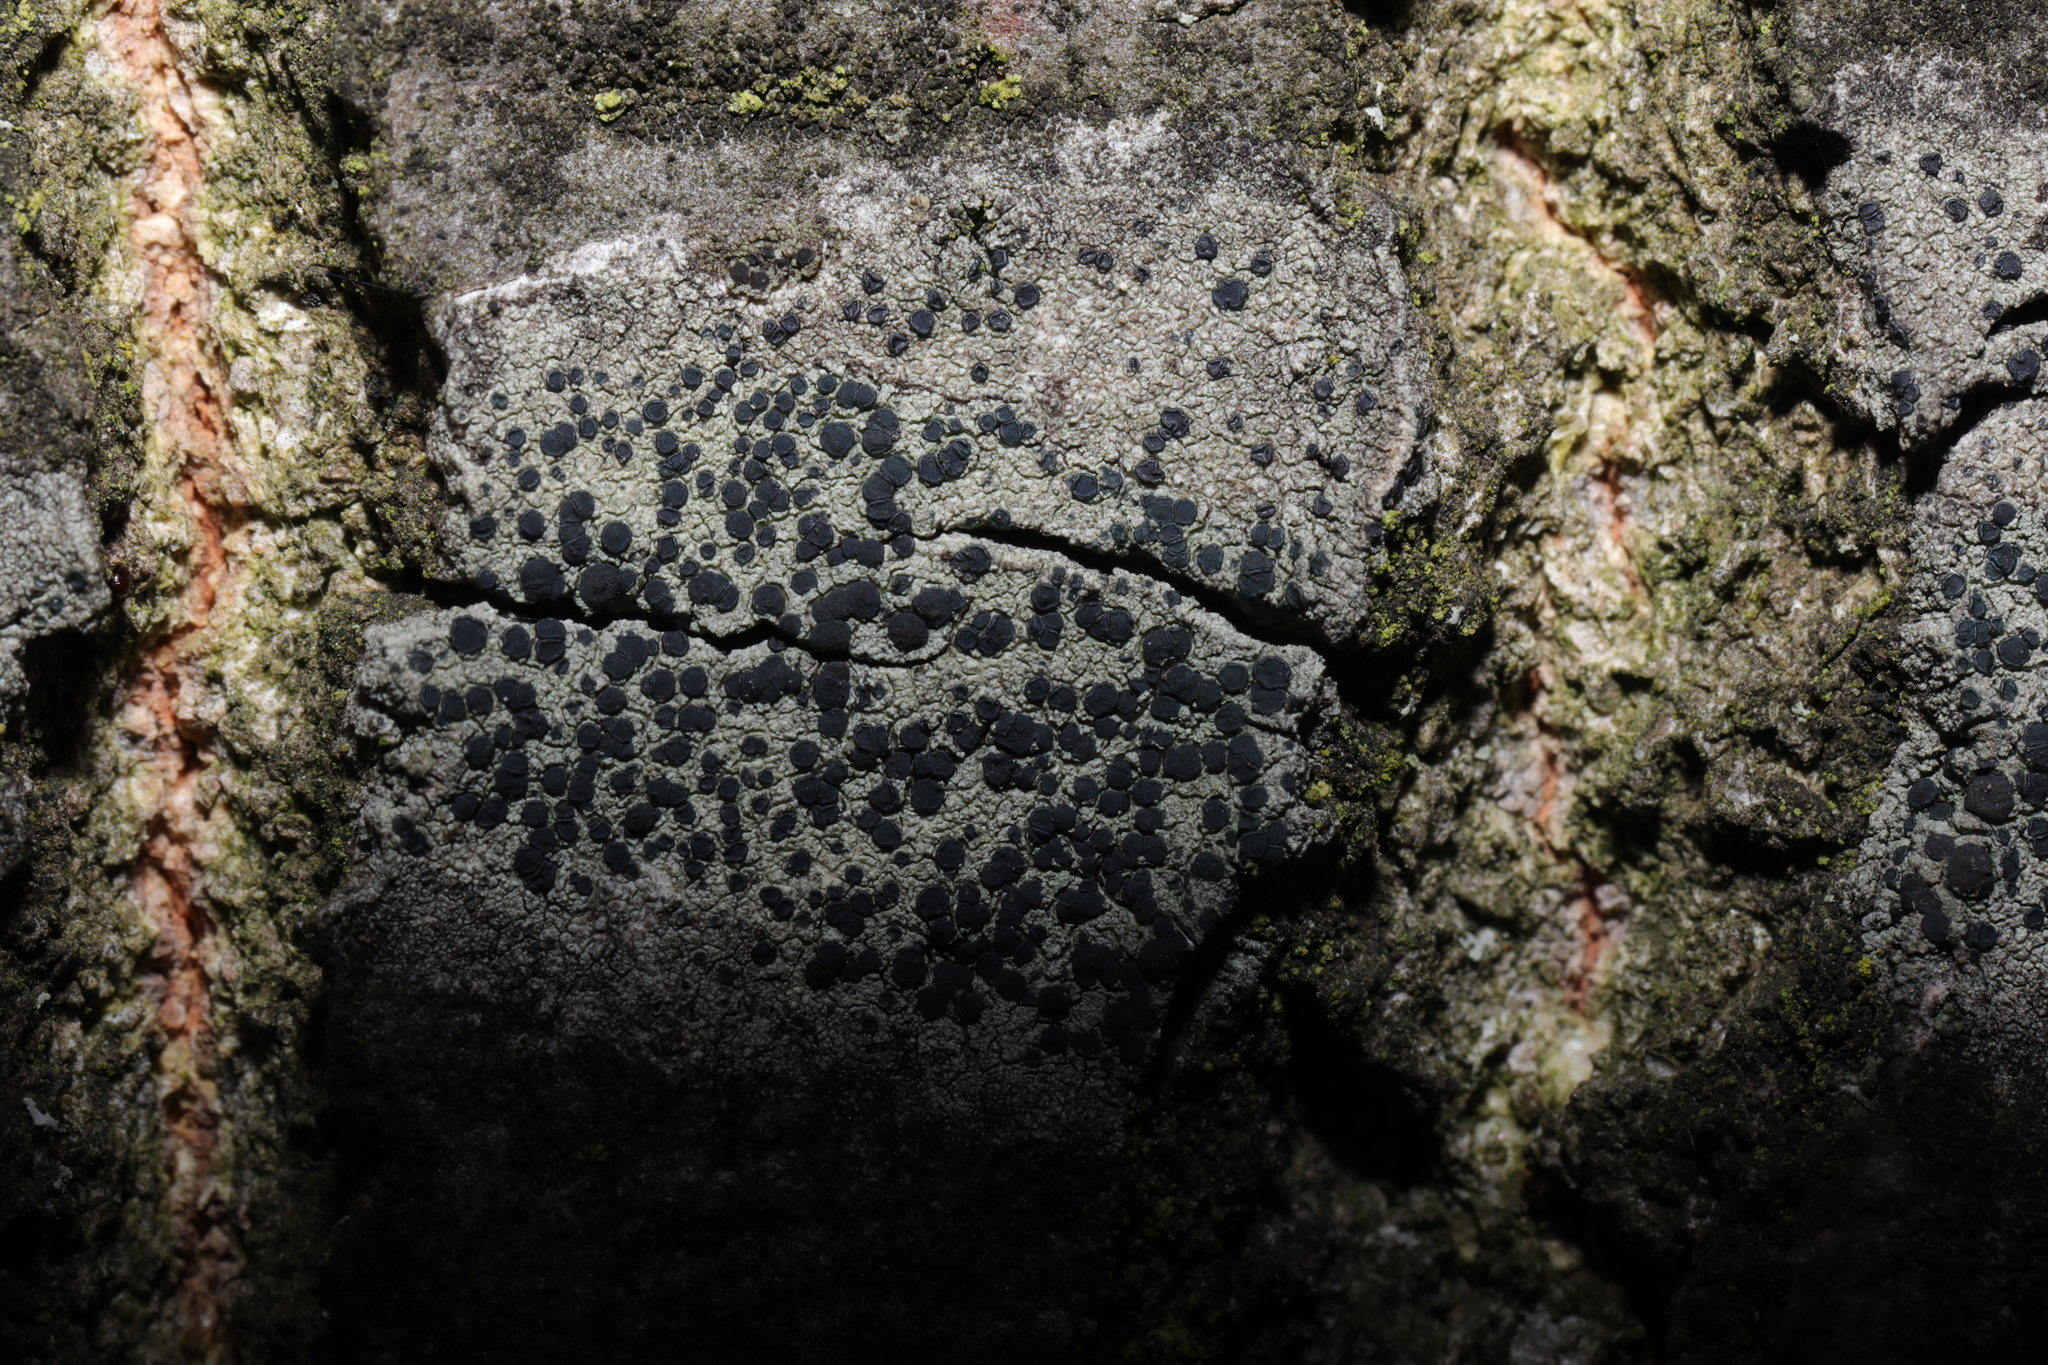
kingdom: Fungi
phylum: Ascomycota
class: Lecanoromycetes
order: Lecanorales
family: Lecanoraceae
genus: Lecidella
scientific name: Lecidella elaeochroma
